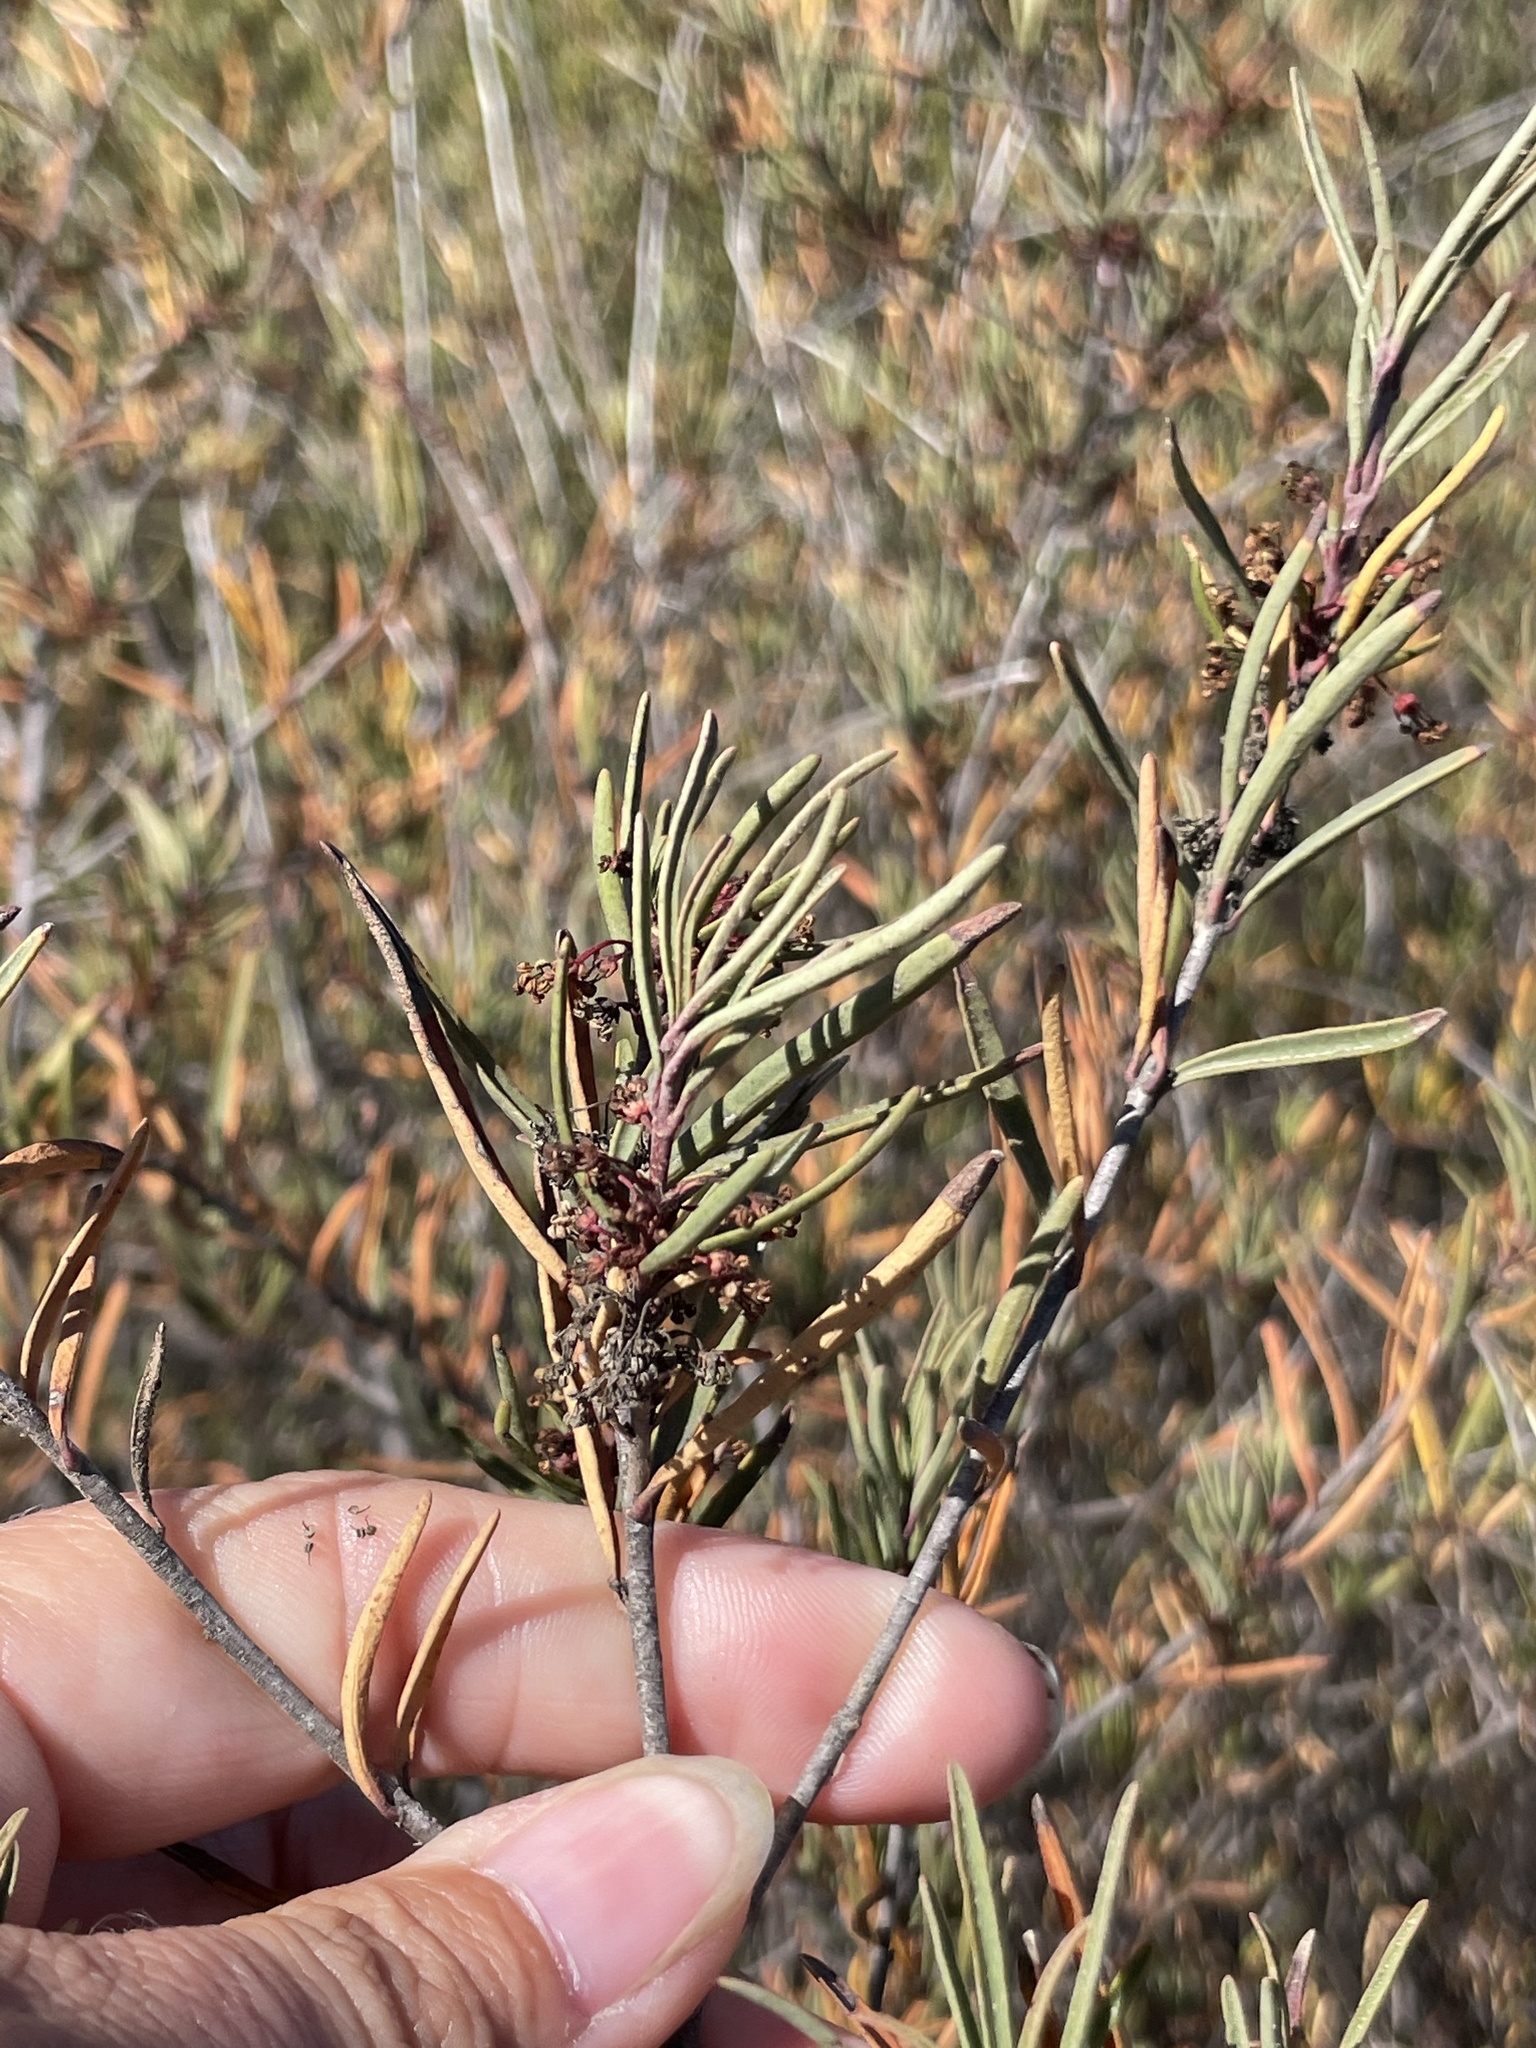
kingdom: Plantae
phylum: Tracheophyta
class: Magnoliopsida
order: Malpighiales
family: Picrodendraceae
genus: Tetracoccus
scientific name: Tetracoccus dioicus
